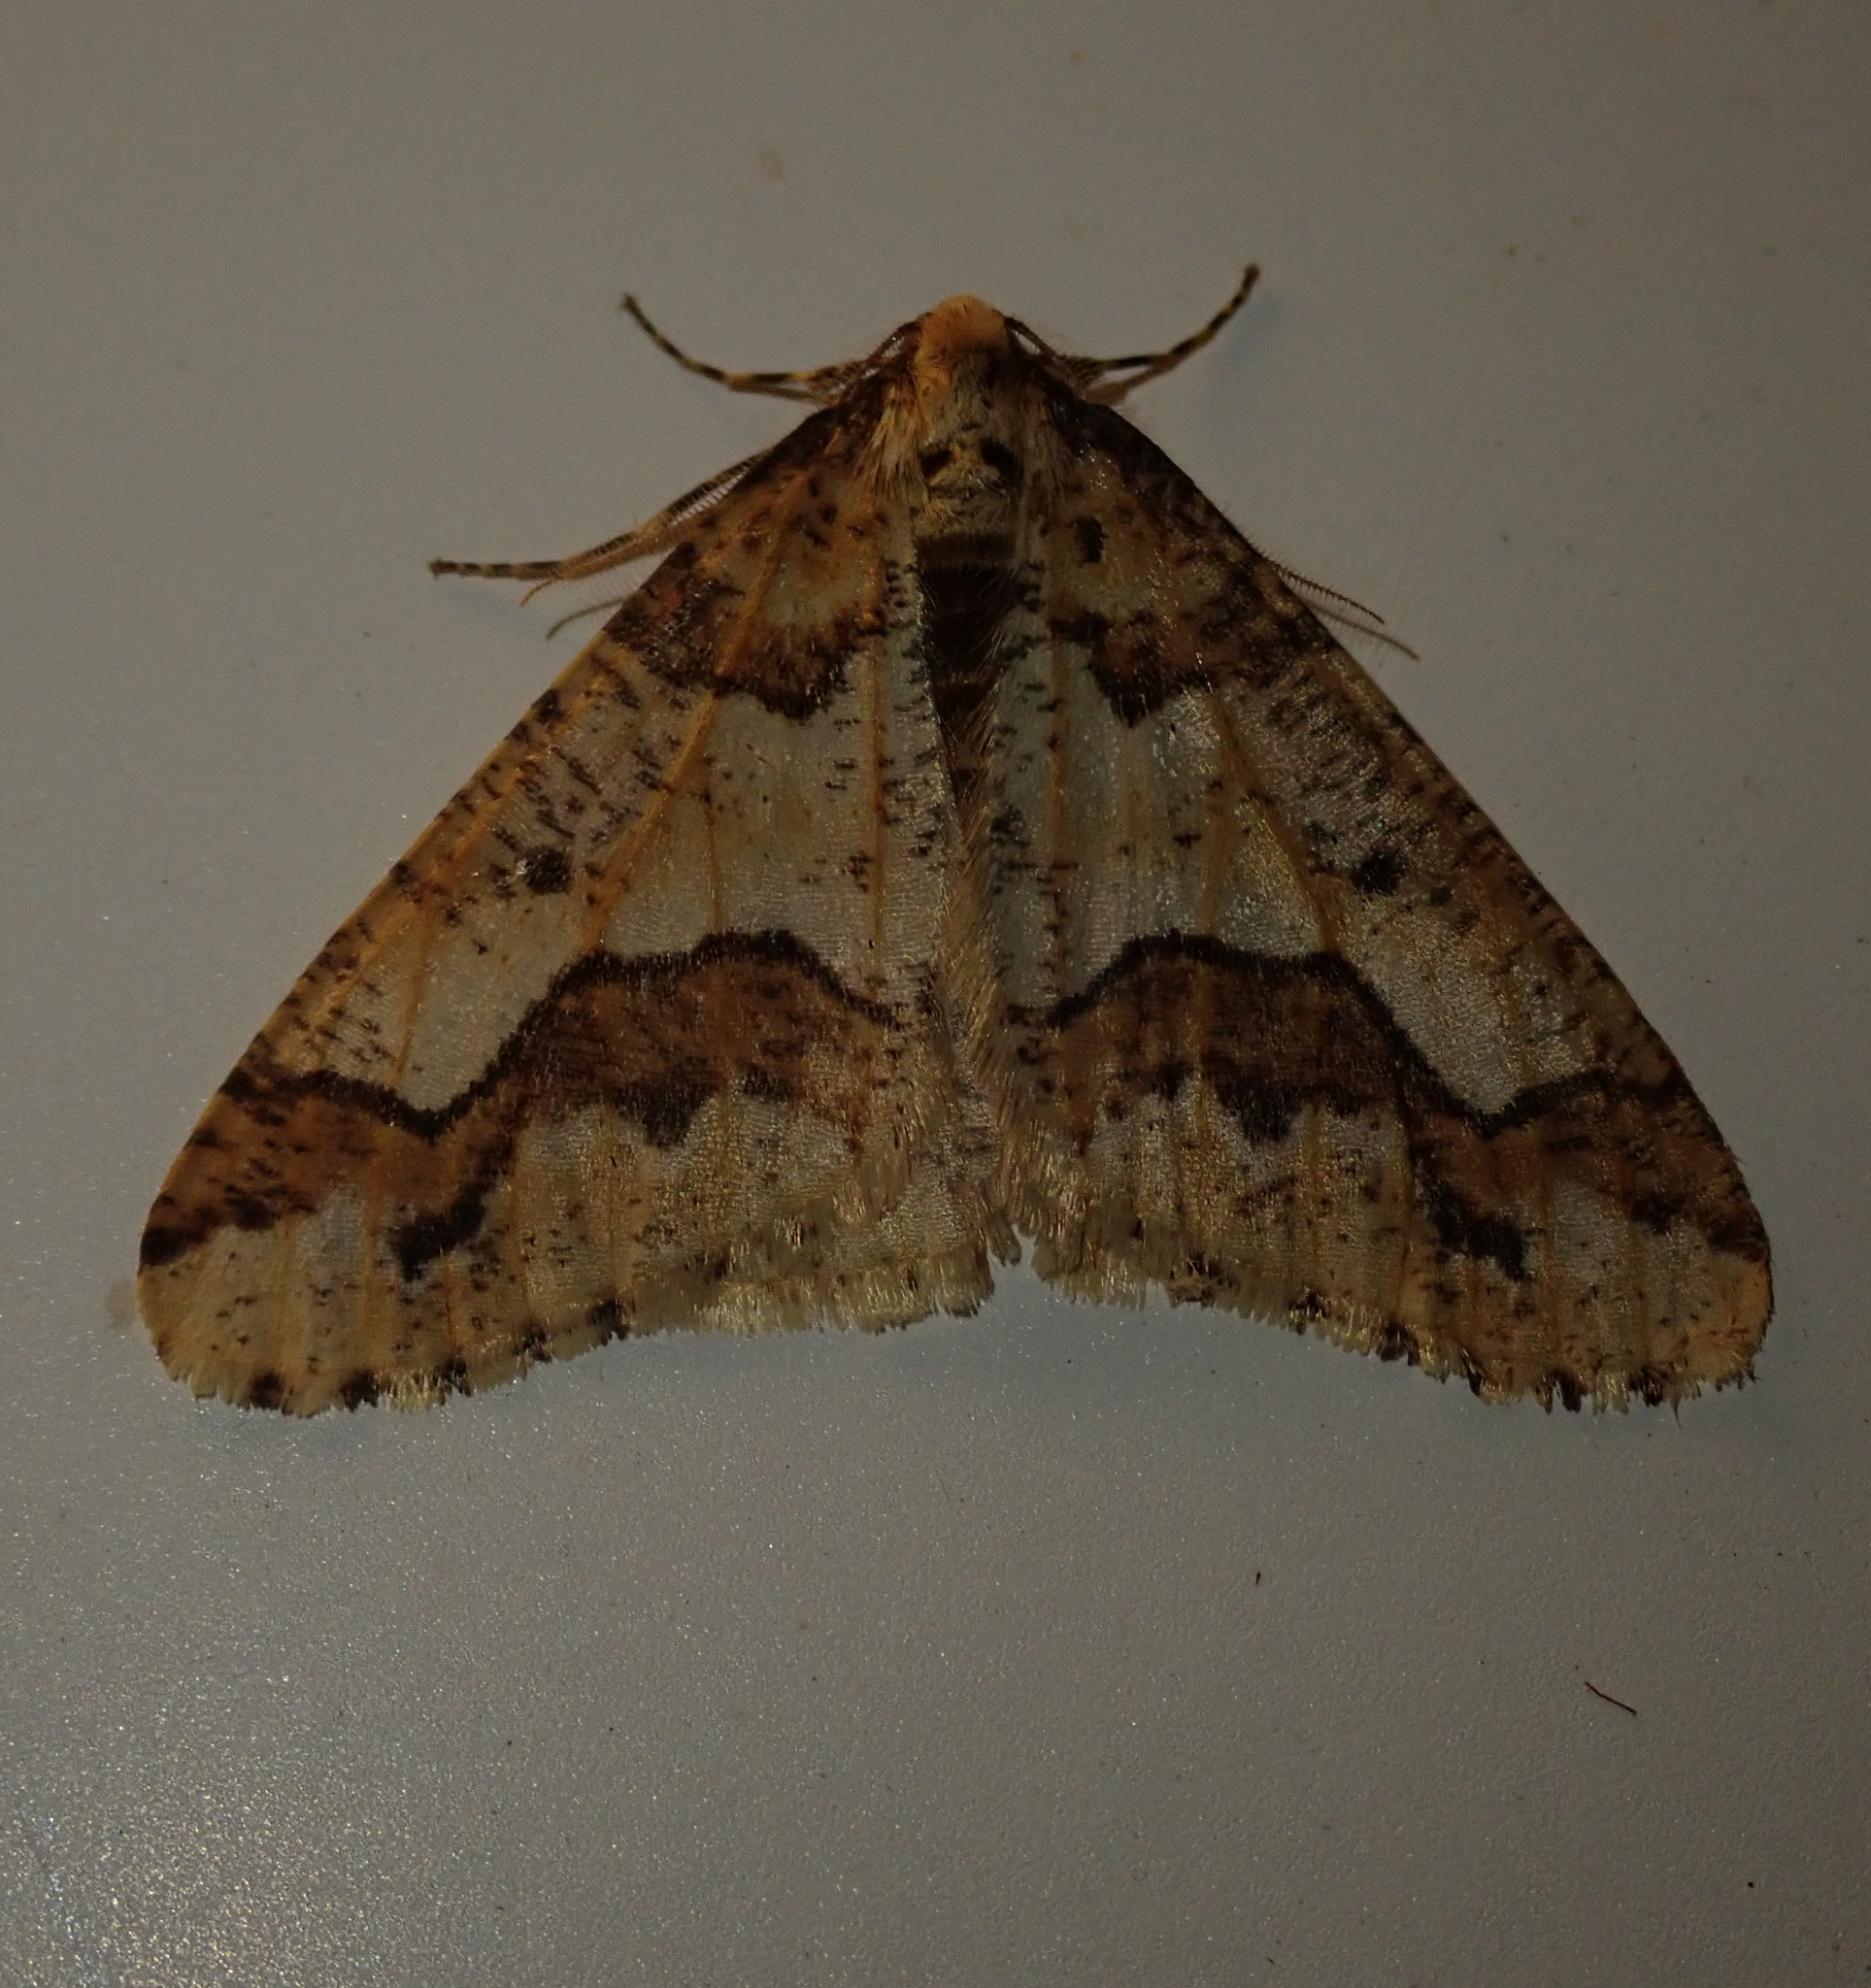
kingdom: Animalia
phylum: Arthropoda
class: Insecta
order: Lepidoptera
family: Geometridae
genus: Erannis
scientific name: Erannis defoliaria
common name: Mottled umber
